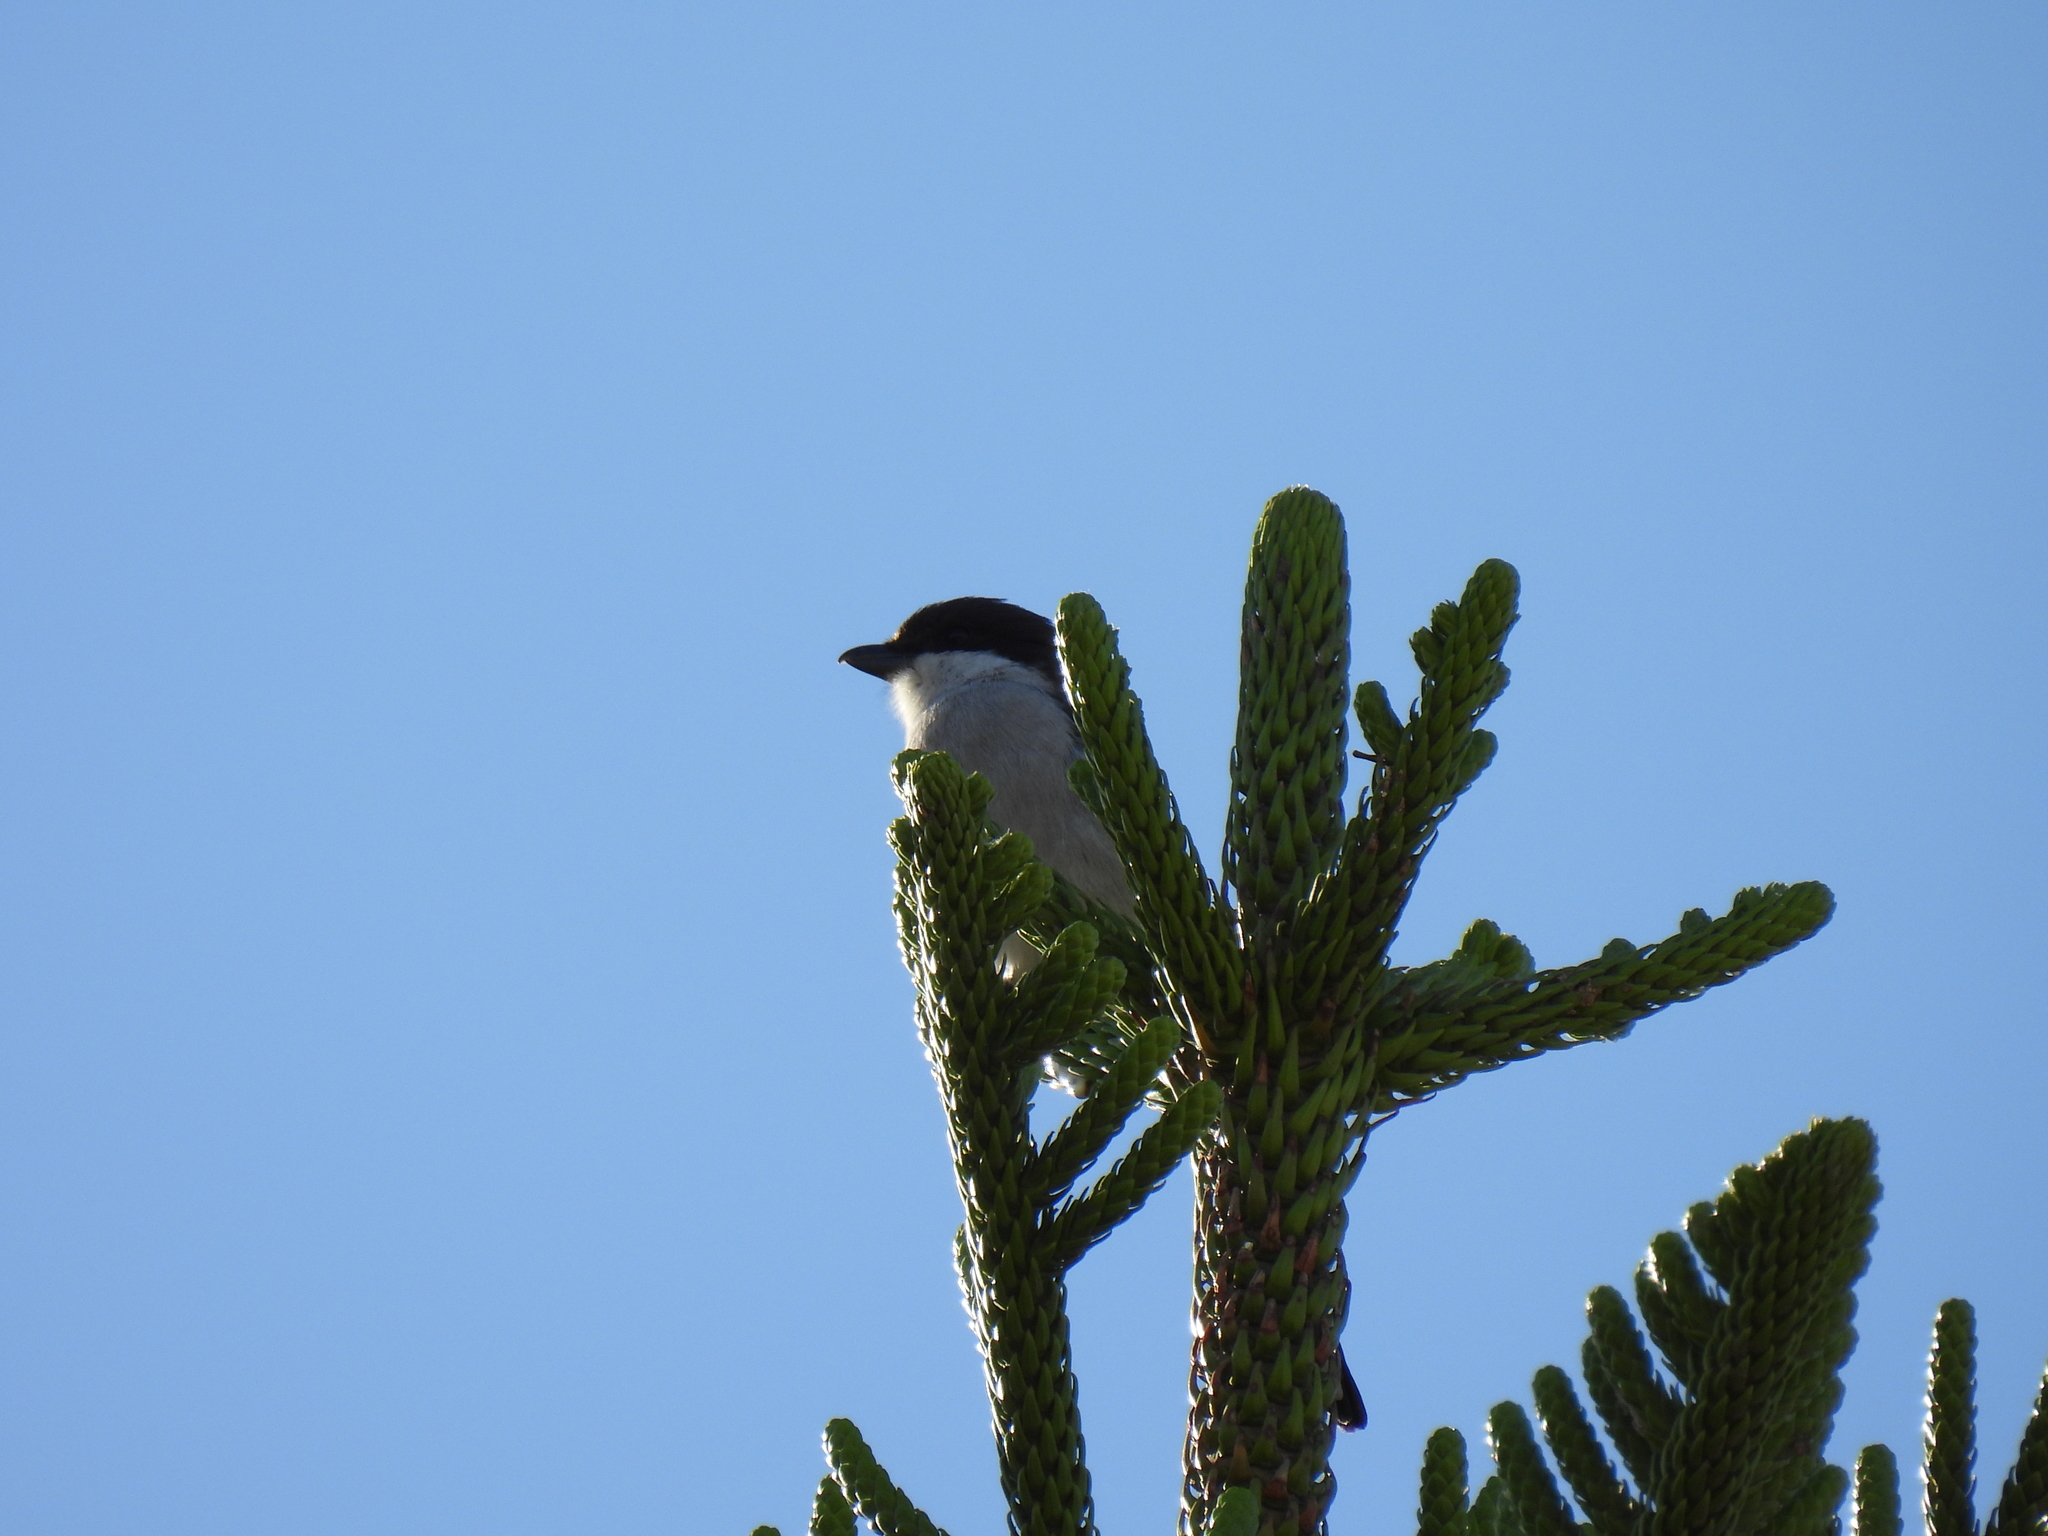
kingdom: Animalia
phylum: Chordata
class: Aves
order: Passeriformes
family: Laniidae
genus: Lanius
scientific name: Lanius collaris
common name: Southern fiscal
